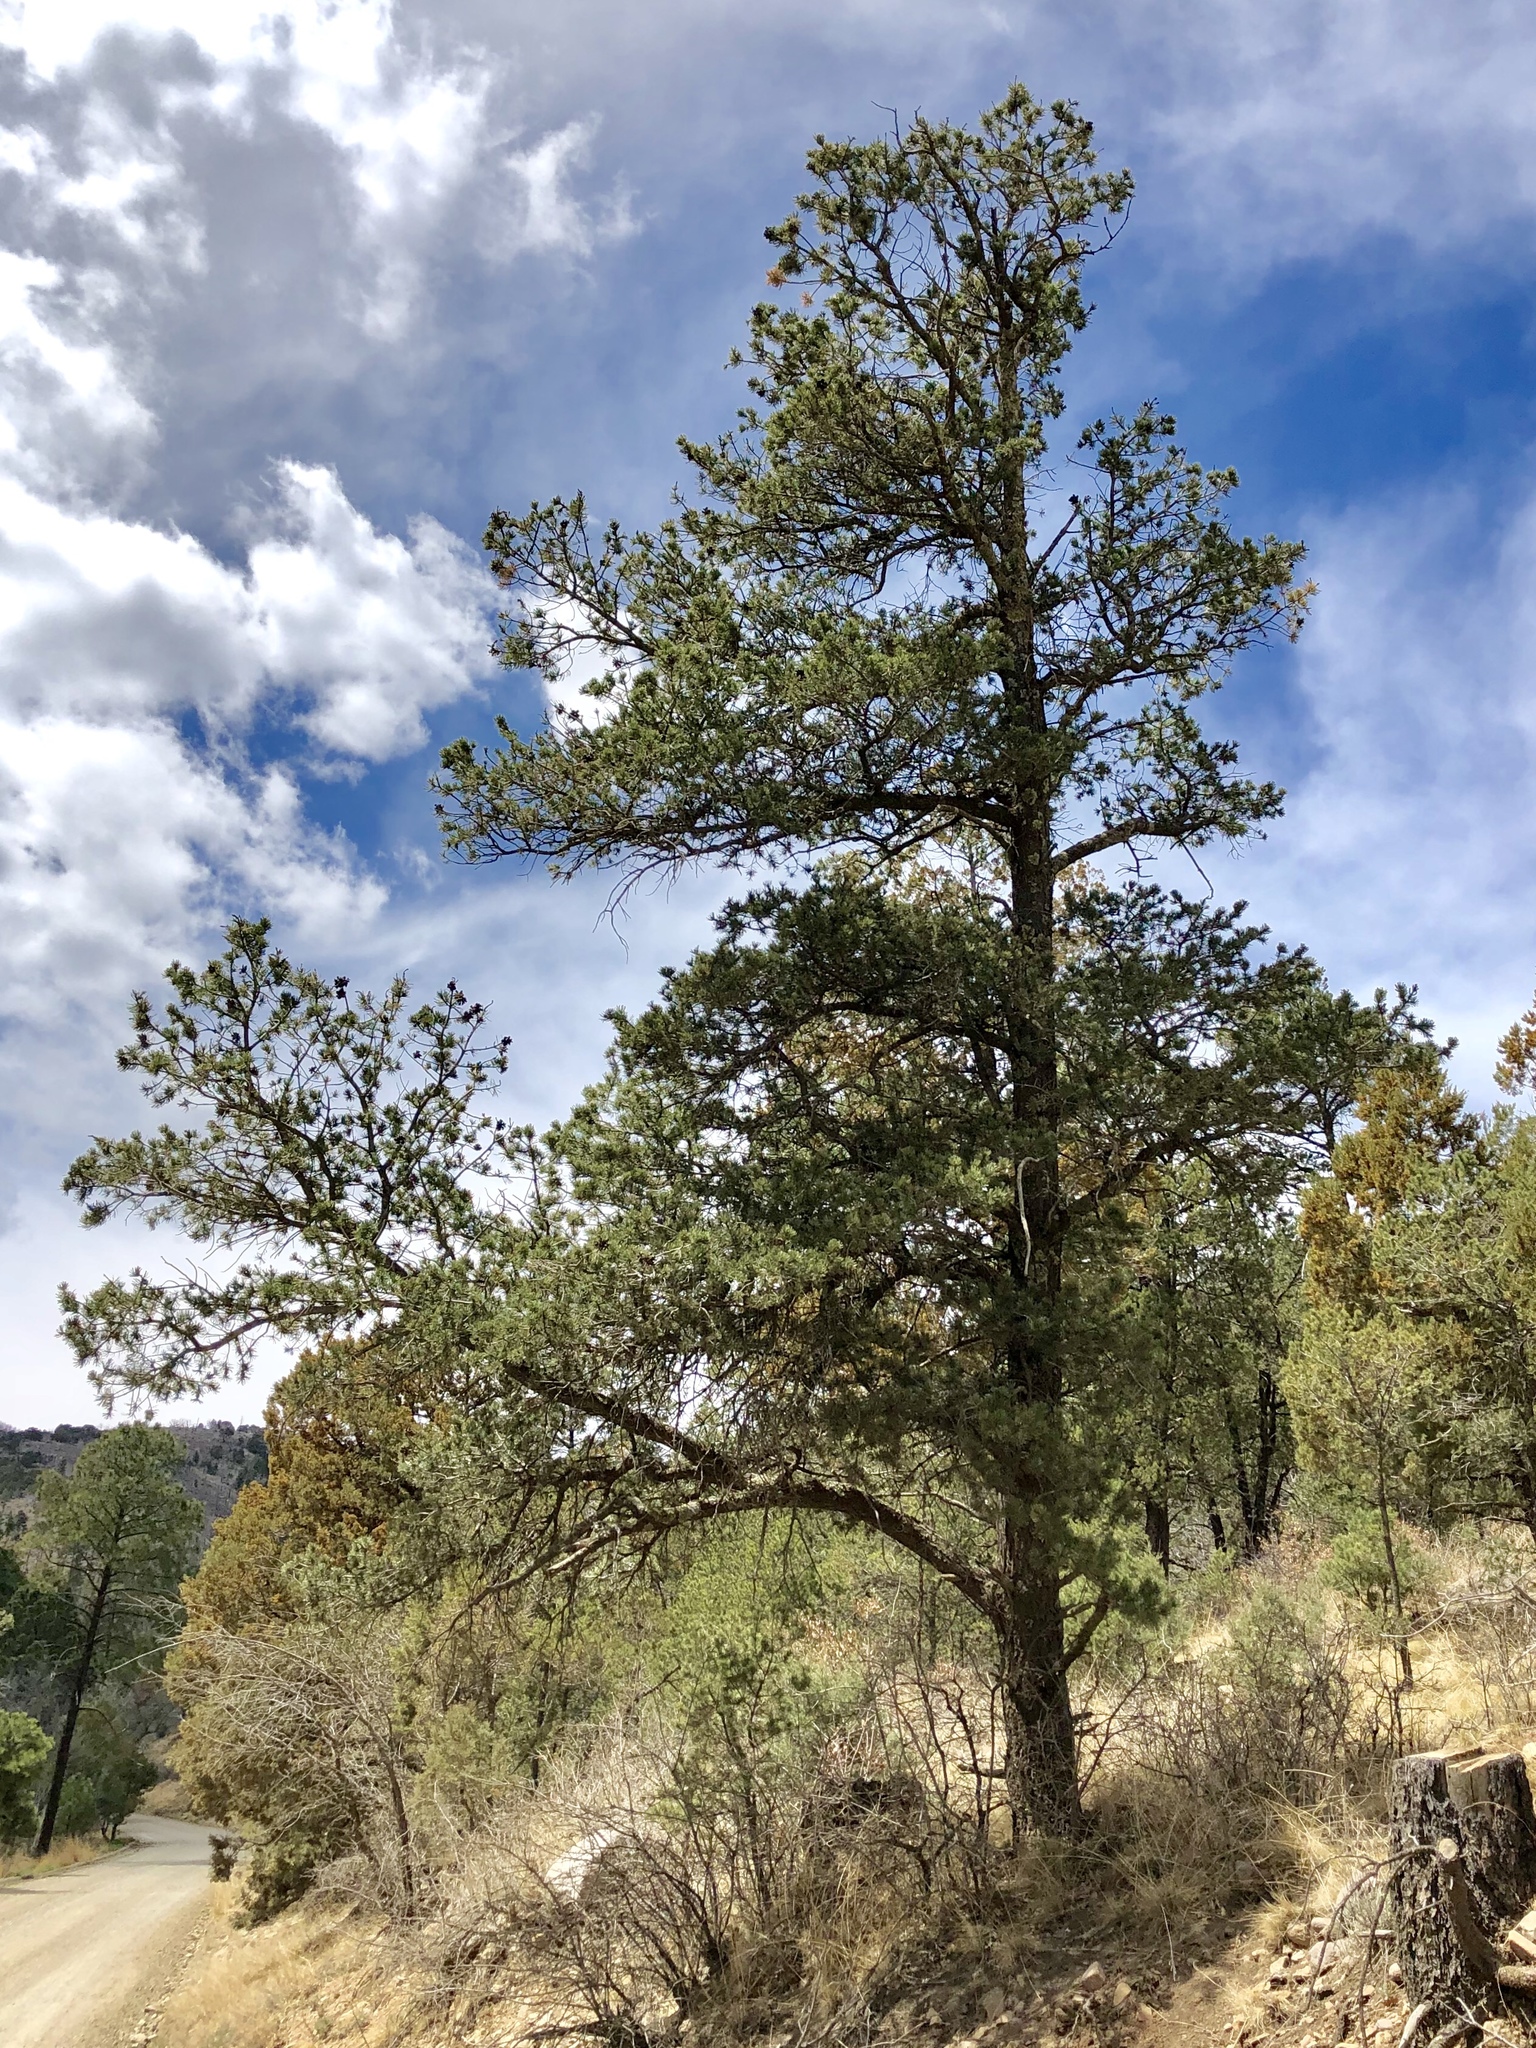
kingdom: Plantae
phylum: Tracheophyta
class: Pinopsida
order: Pinales
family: Pinaceae
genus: Pinus
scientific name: Pinus edulis
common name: Colorado pinyon
